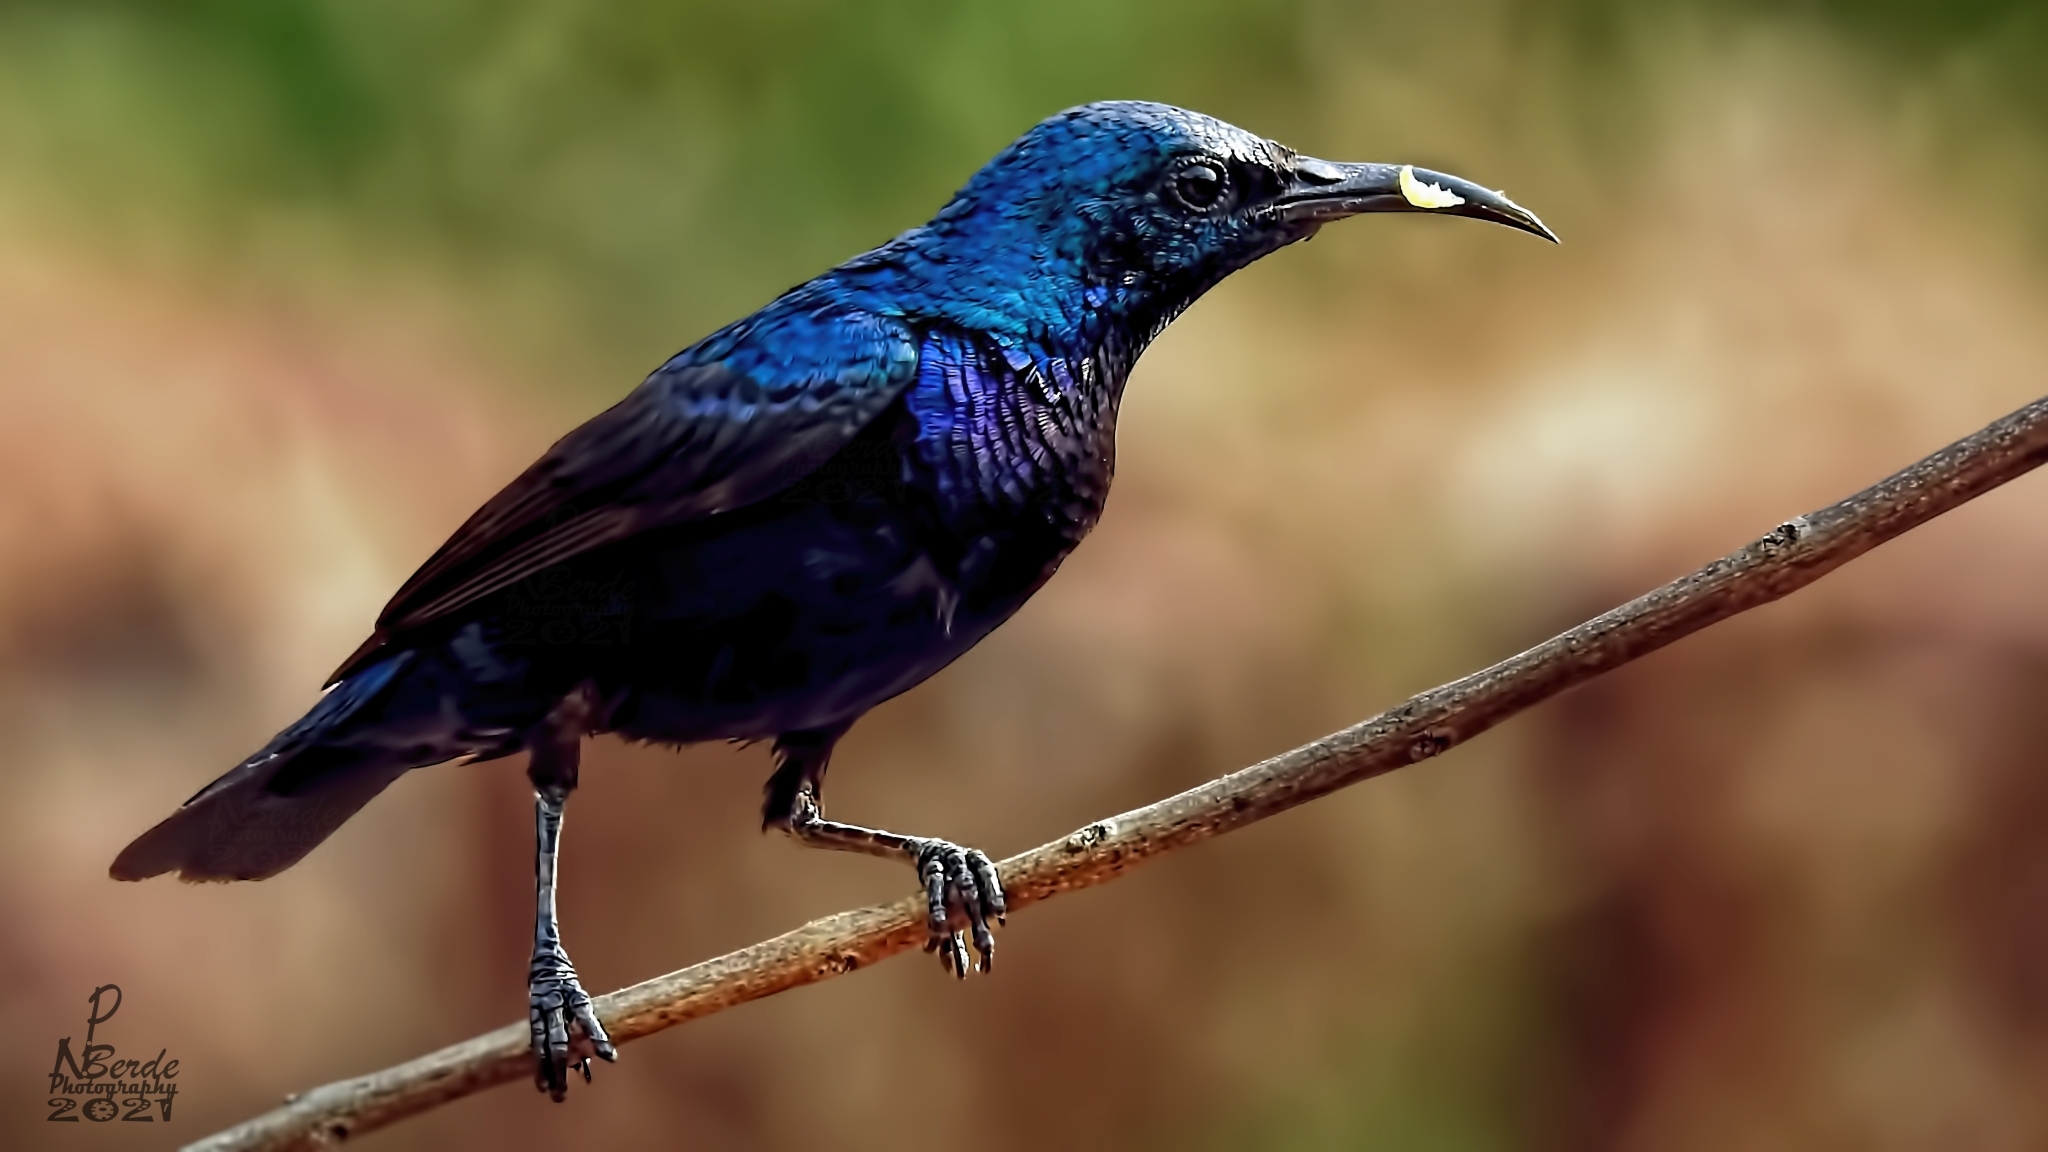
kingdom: Animalia
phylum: Chordata
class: Aves
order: Passeriformes
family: Nectariniidae
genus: Cinnyris
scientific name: Cinnyris asiaticus
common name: Purple sunbird
